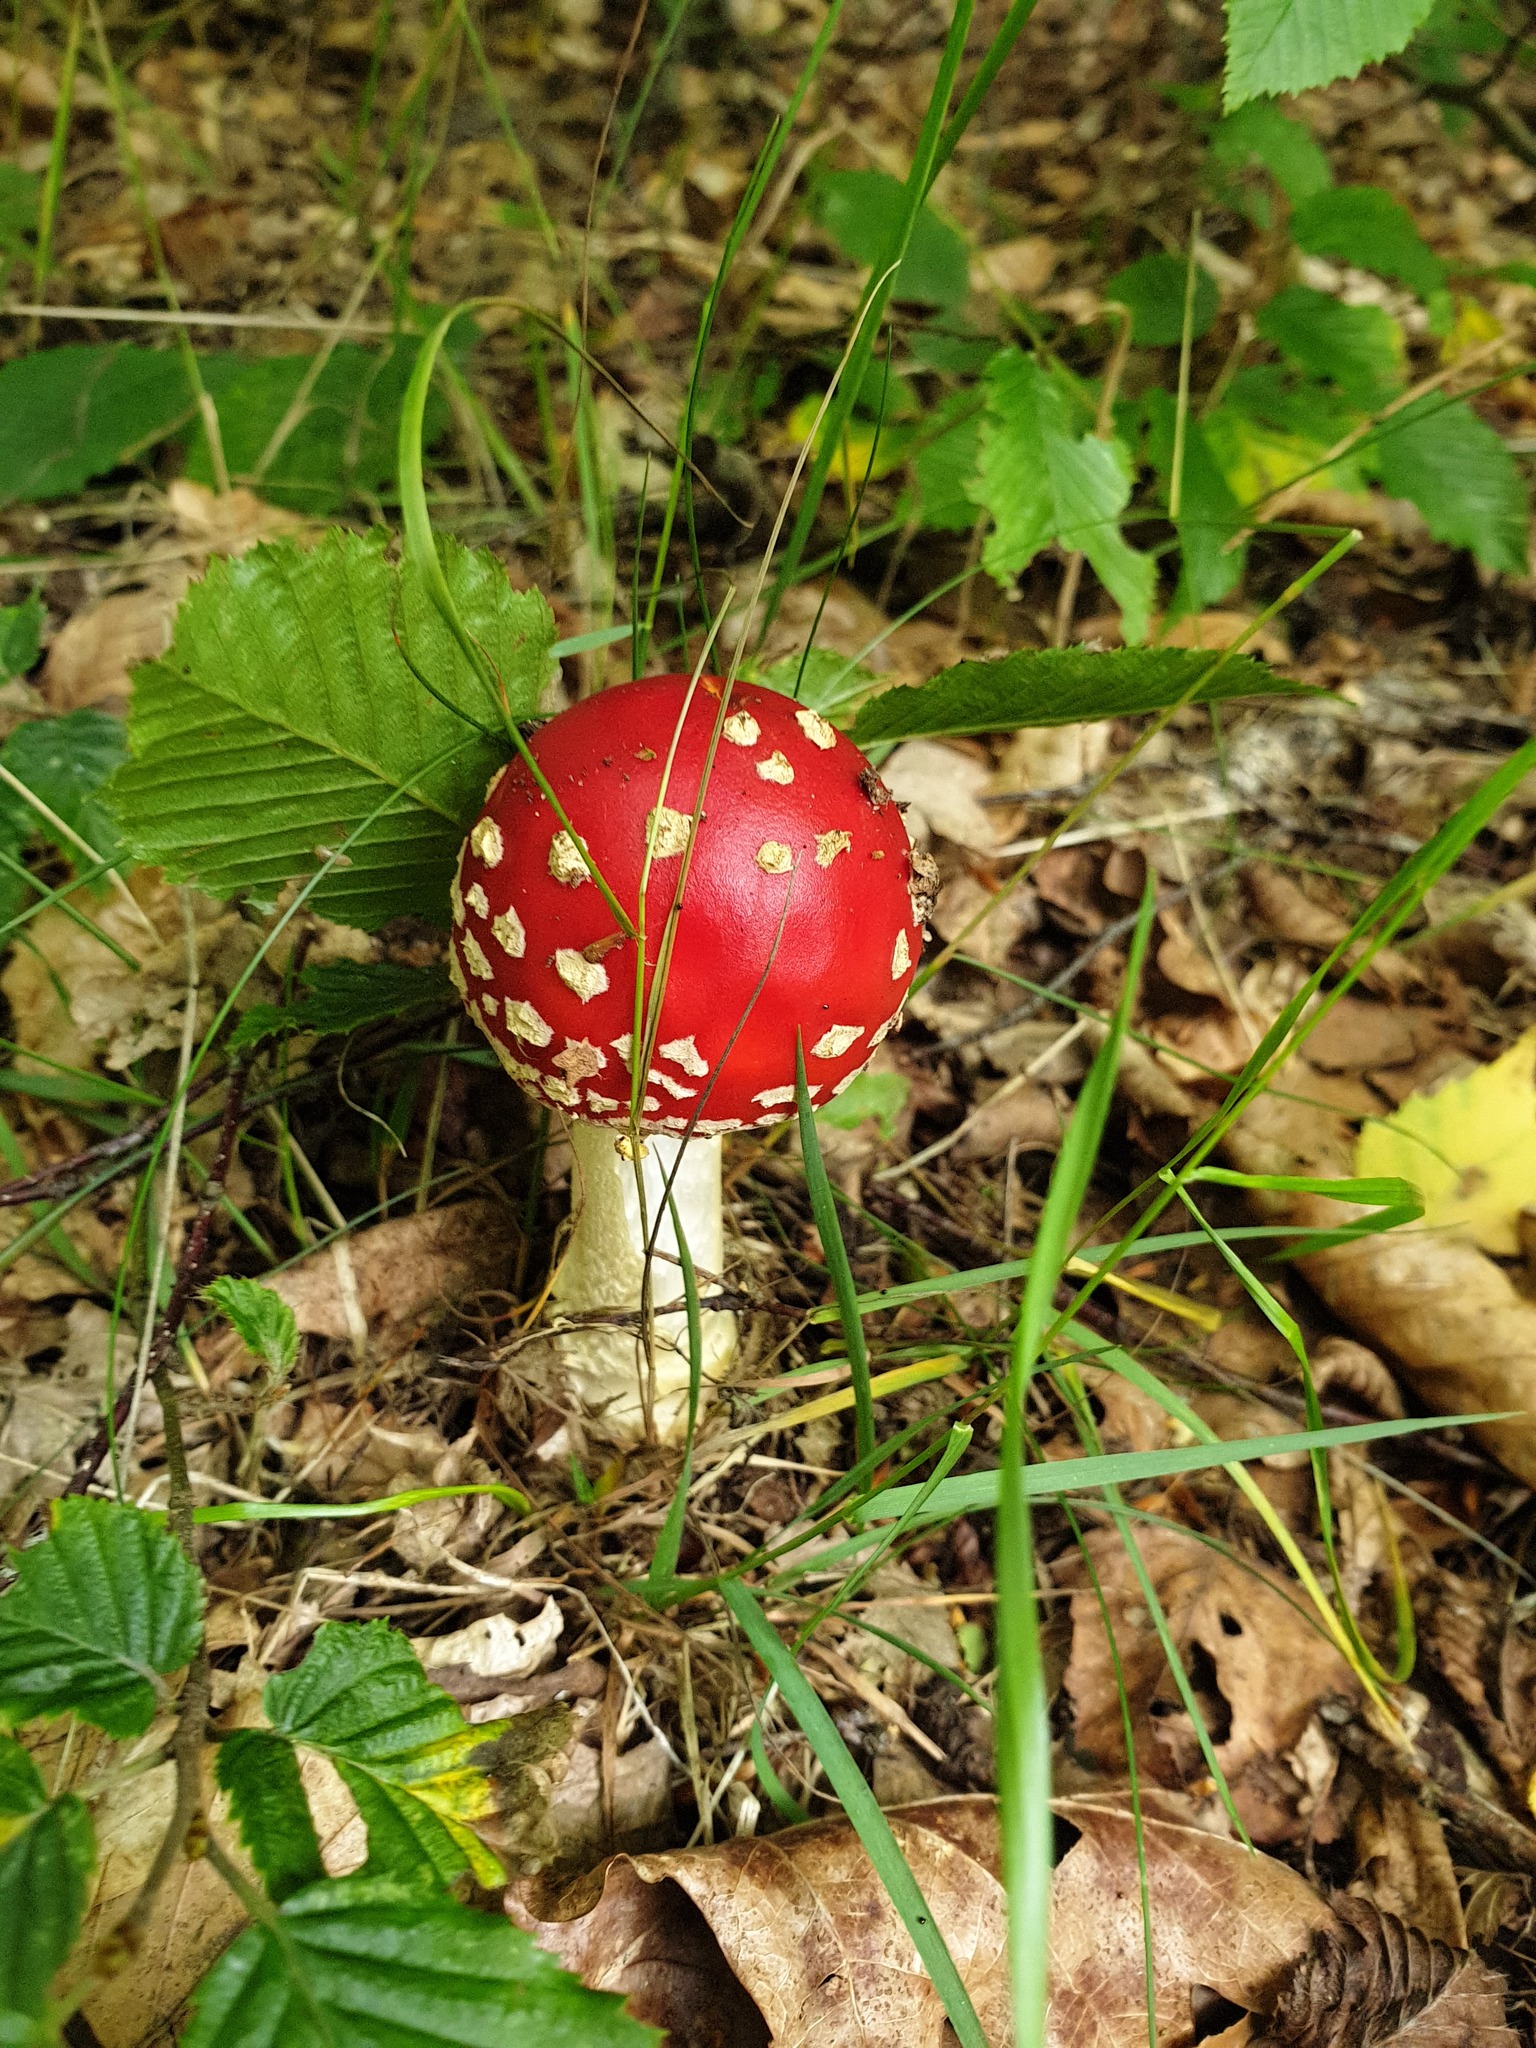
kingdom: Fungi
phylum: Basidiomycota
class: Agaricomycetes
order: Agaricales
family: Amanitaceae
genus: Amanita
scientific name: Amanita muscaria
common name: Fly agaric
